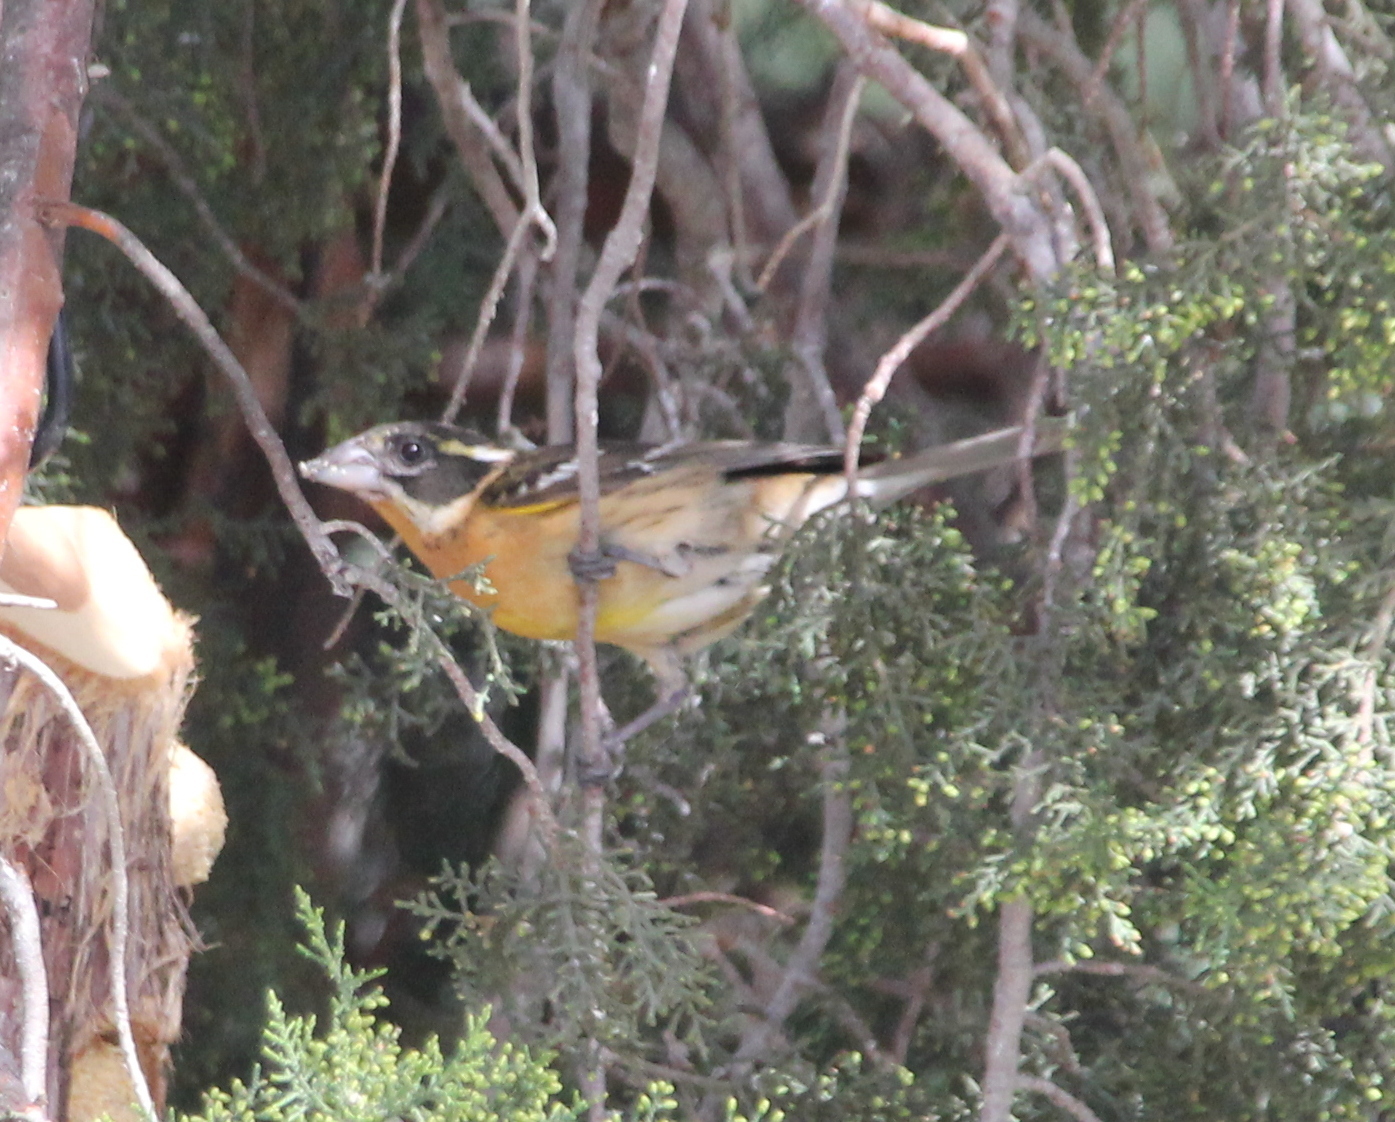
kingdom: Animalia
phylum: Chordata
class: Aves
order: Passeriformes
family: Cardinalidae
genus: Pheucticus
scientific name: Pheucticus melanocephalus
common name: Black-headed grosbeak
